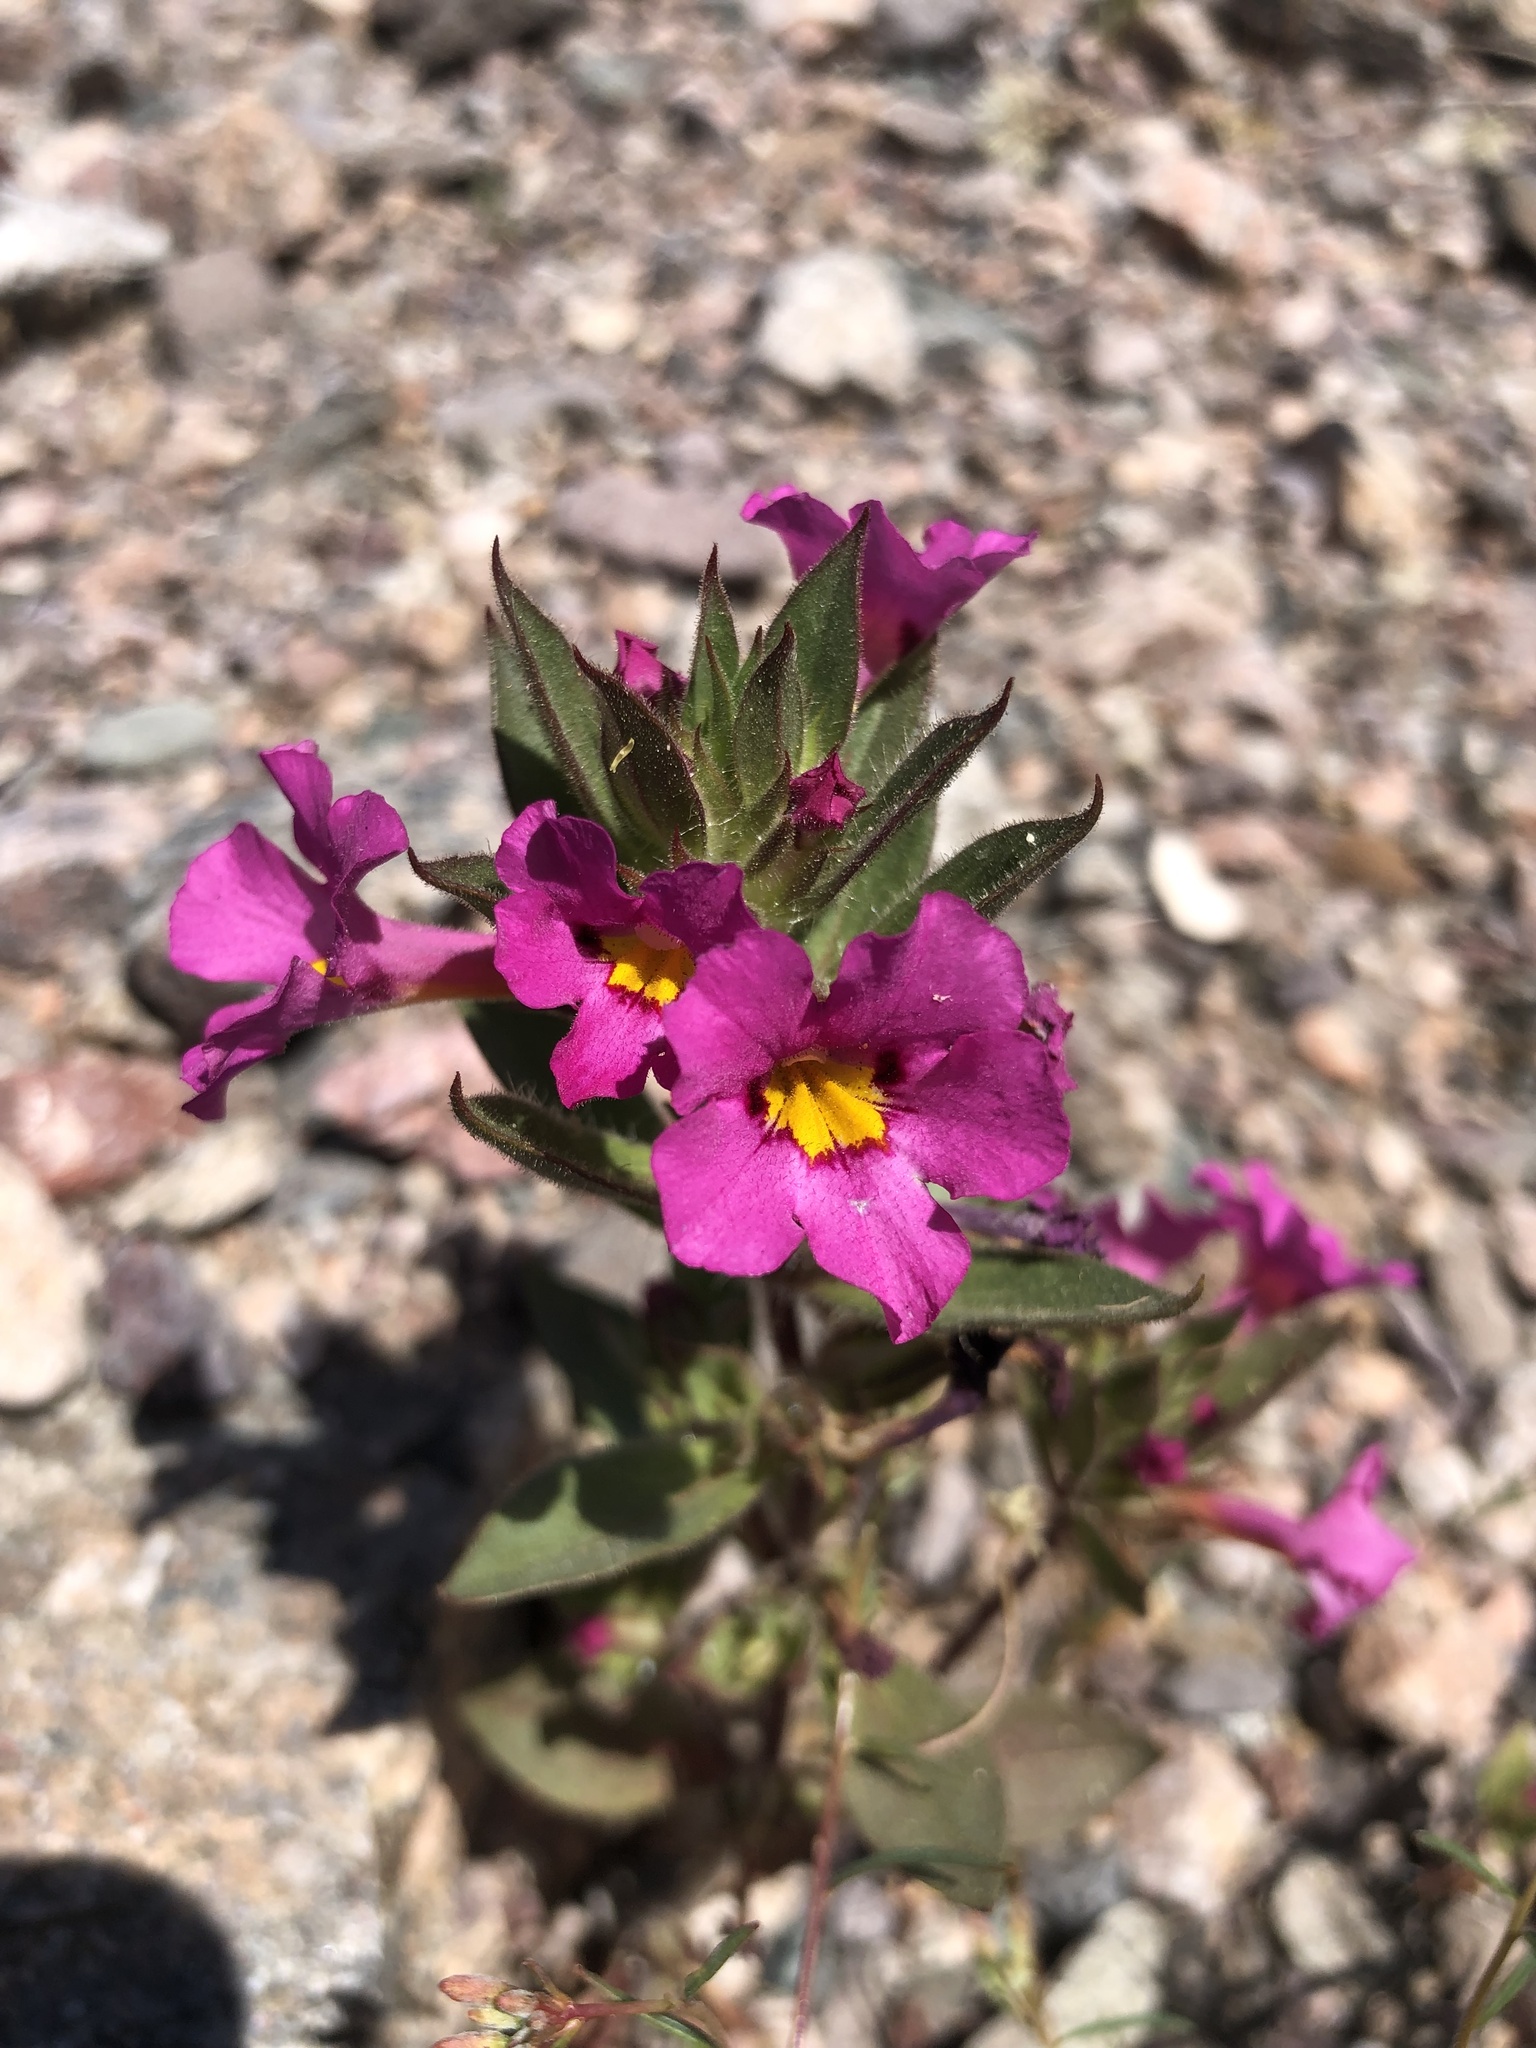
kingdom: Plantae
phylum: Tracheophyta
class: Magnoliopsida
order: Lamiales
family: Phrymaceae
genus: Diplacus
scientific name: Diplacus bigelovii
